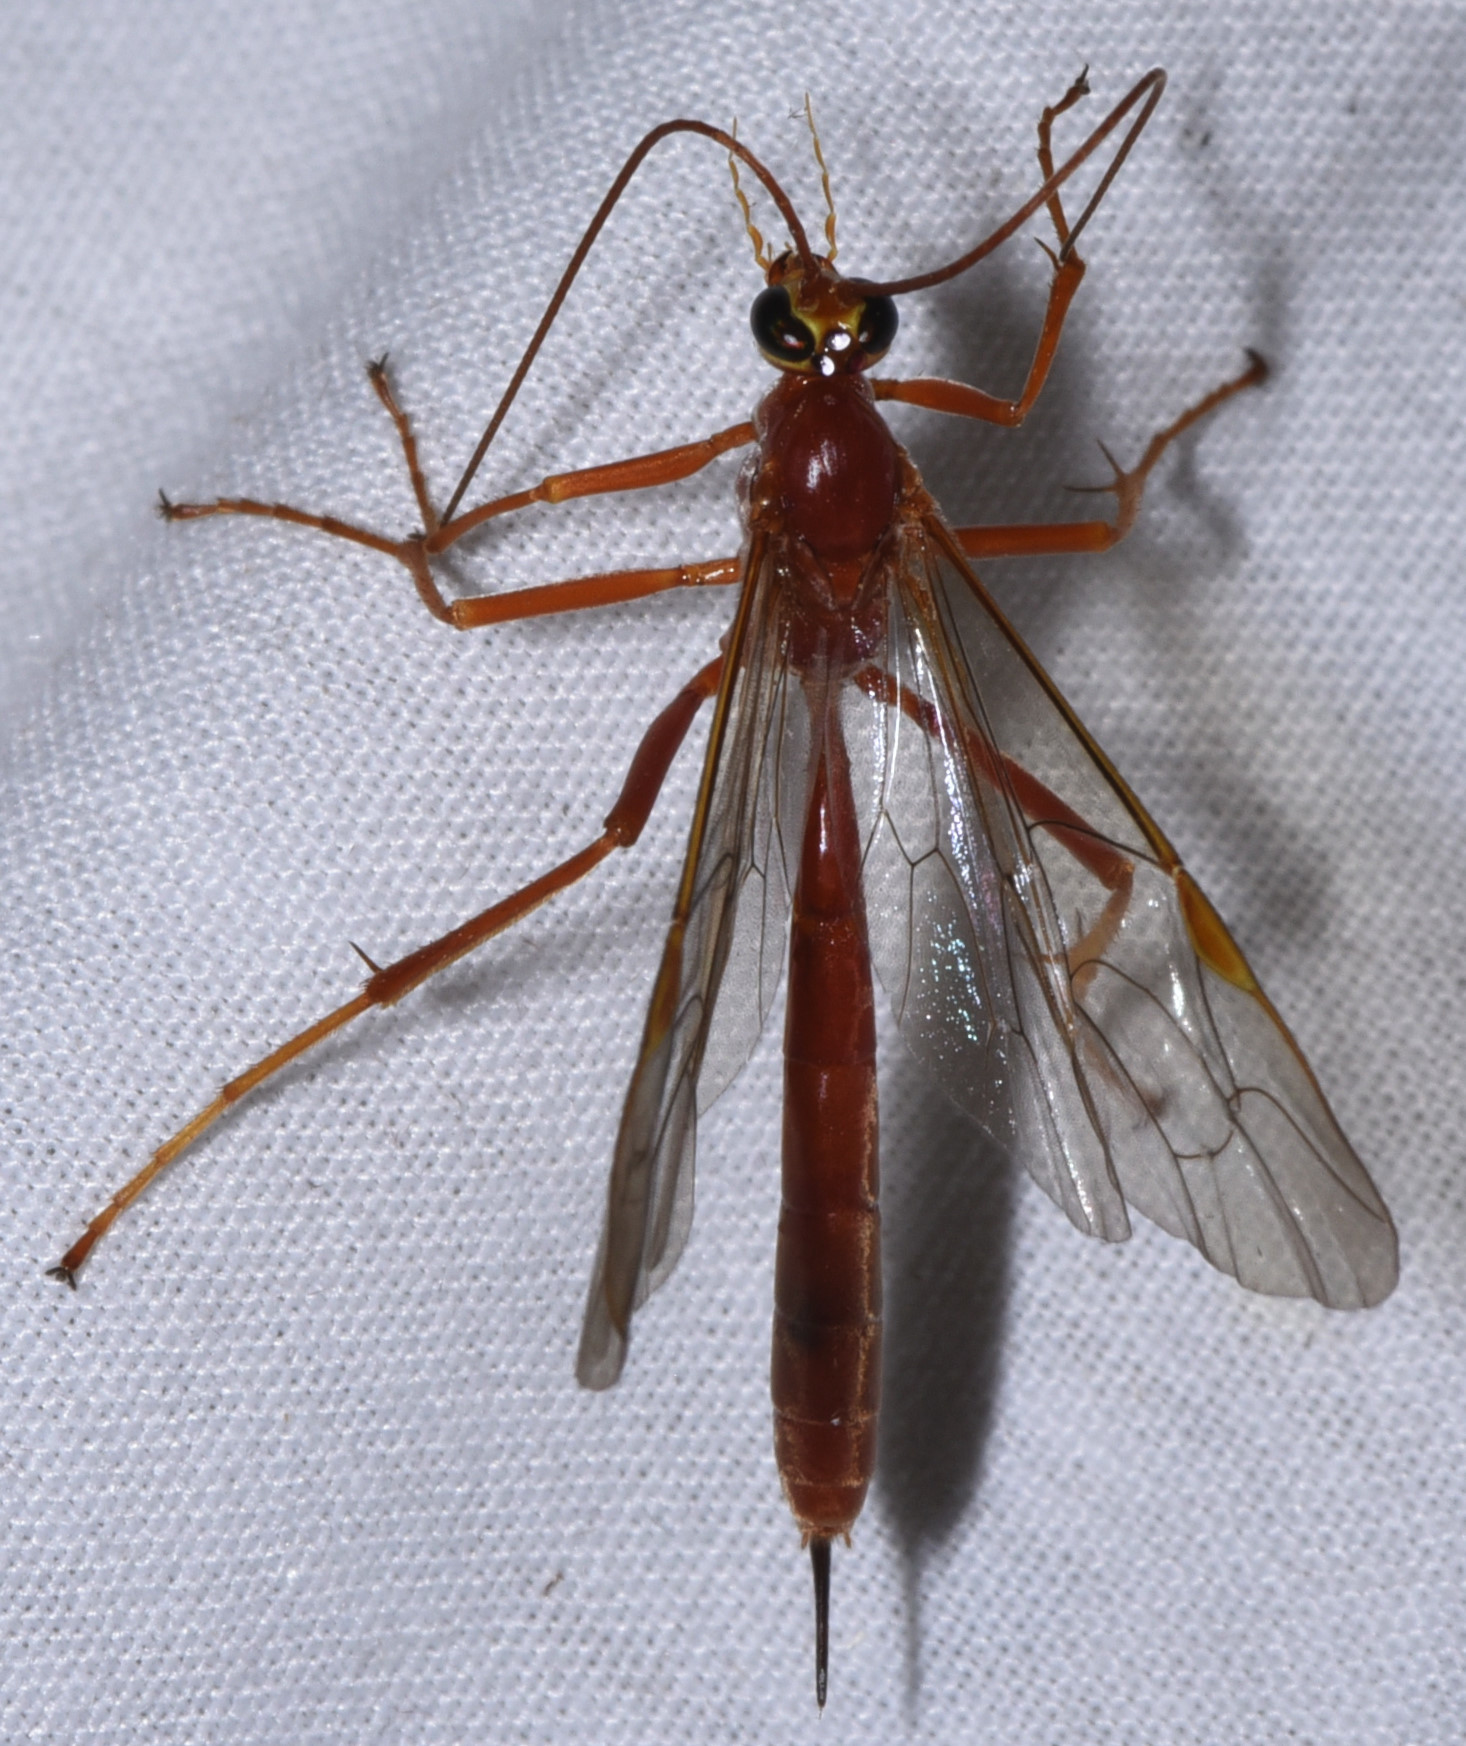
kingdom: Animalia
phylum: Arthropoda
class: Insecta
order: Hymenoptera
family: Ichneumonidae
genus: Netelia
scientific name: Netelia
